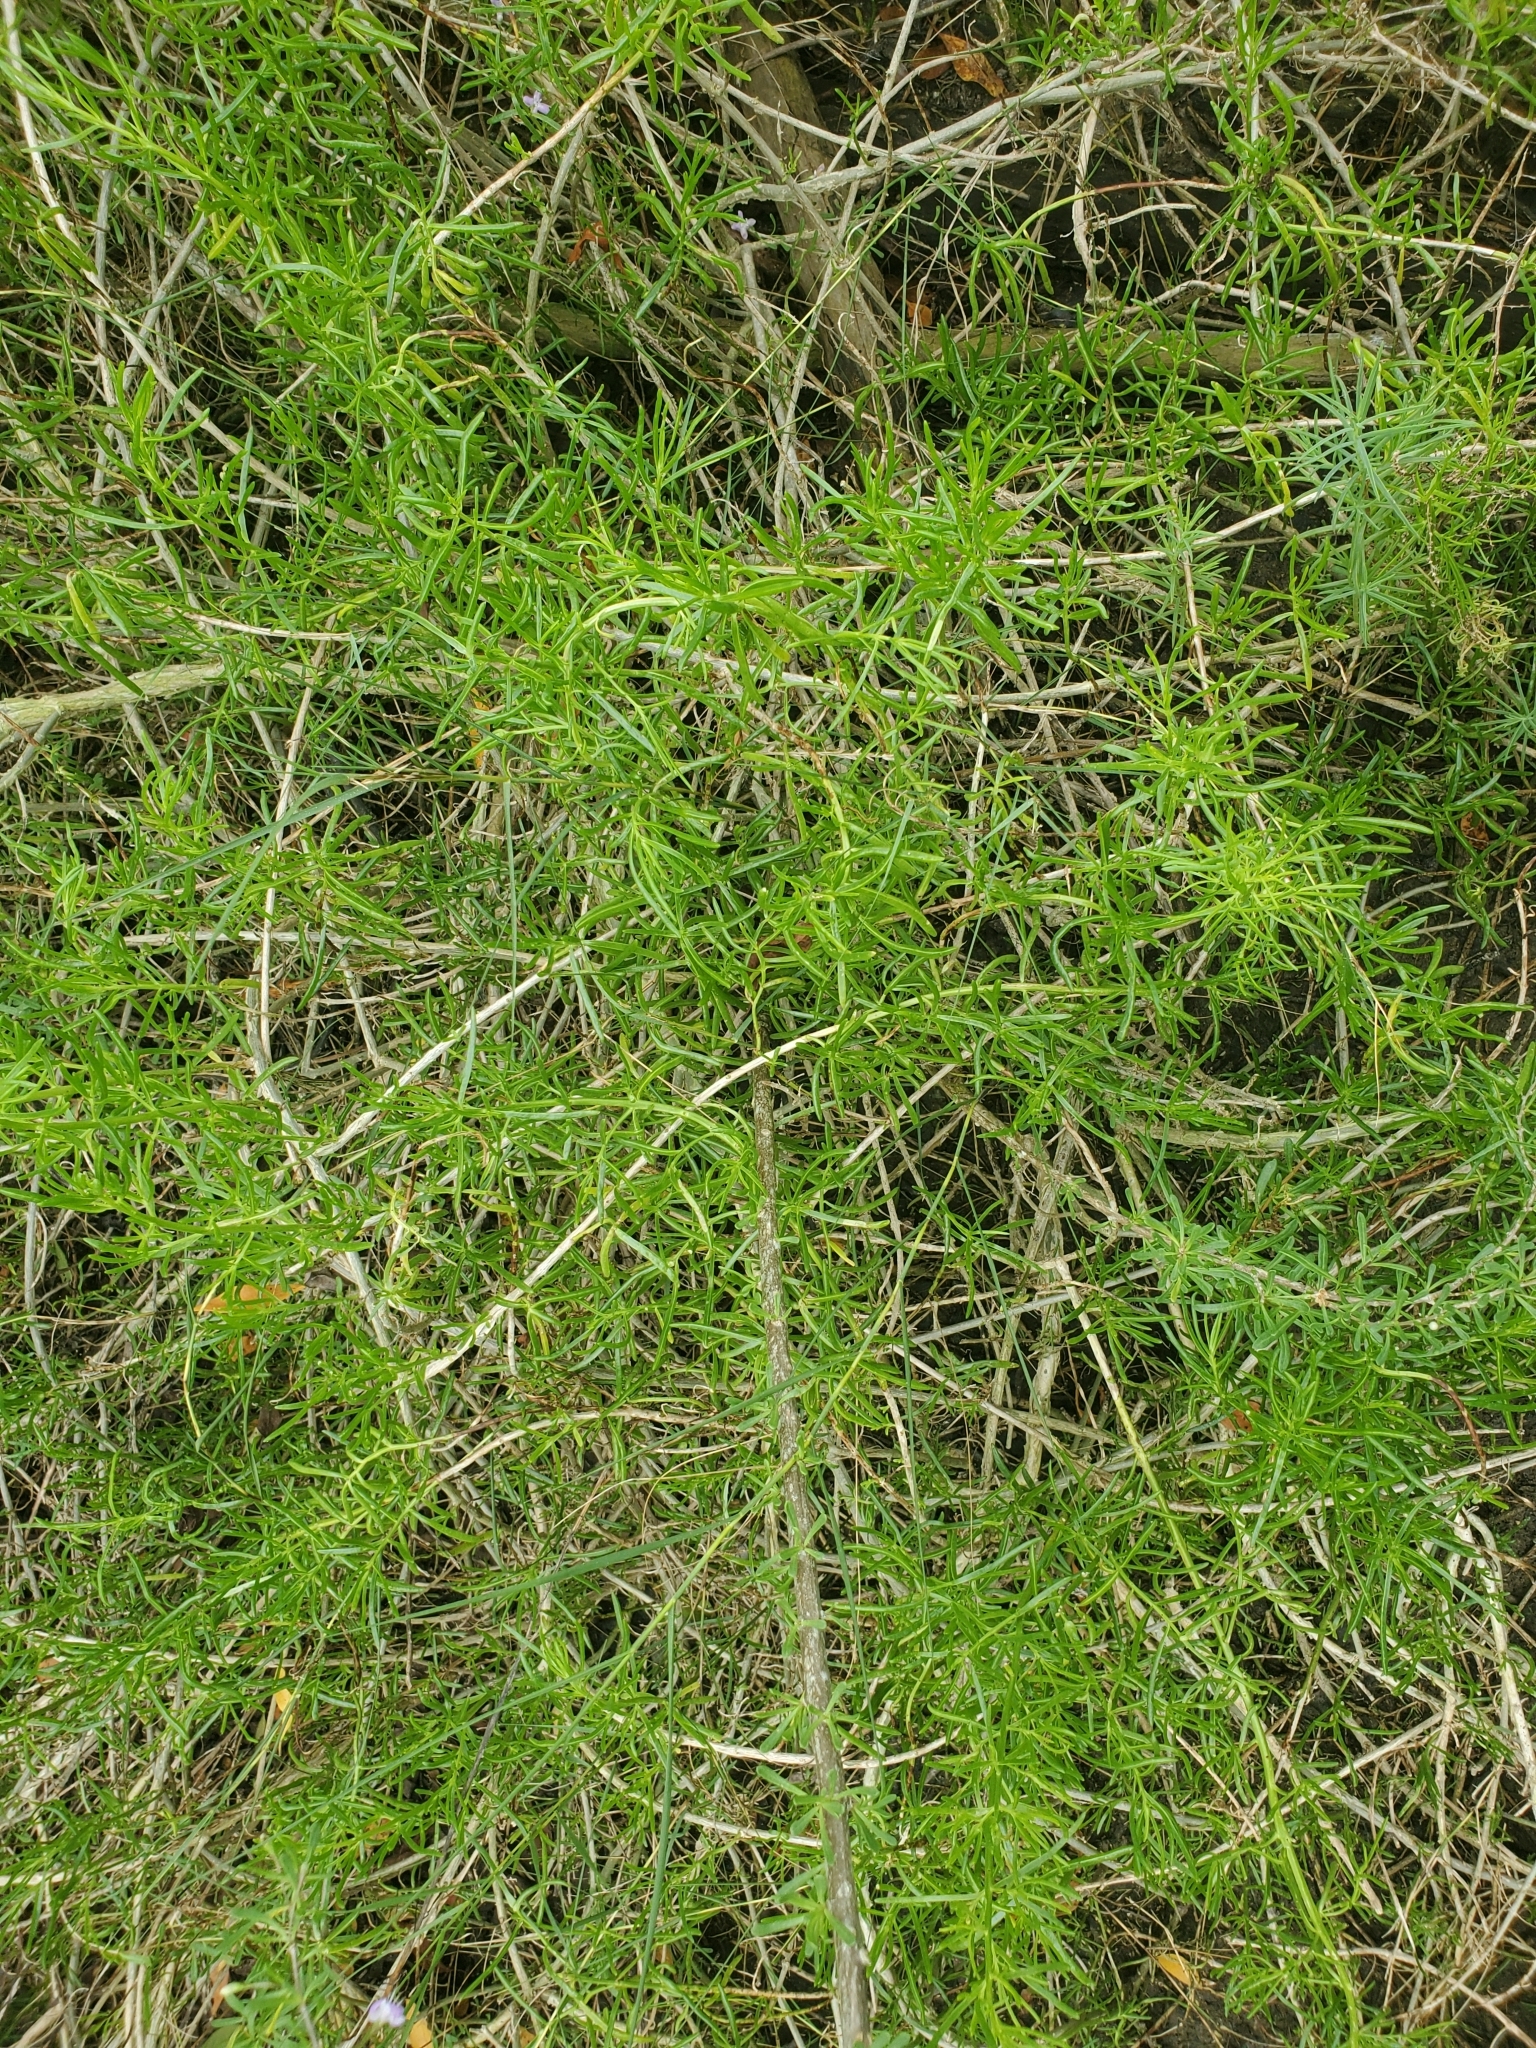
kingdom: Plantae
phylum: Tracheophyta
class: Magnoliopsida
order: Solanales
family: Solanaceae
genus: Lycium
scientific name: Lycium carolinianum
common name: Christmasberry
